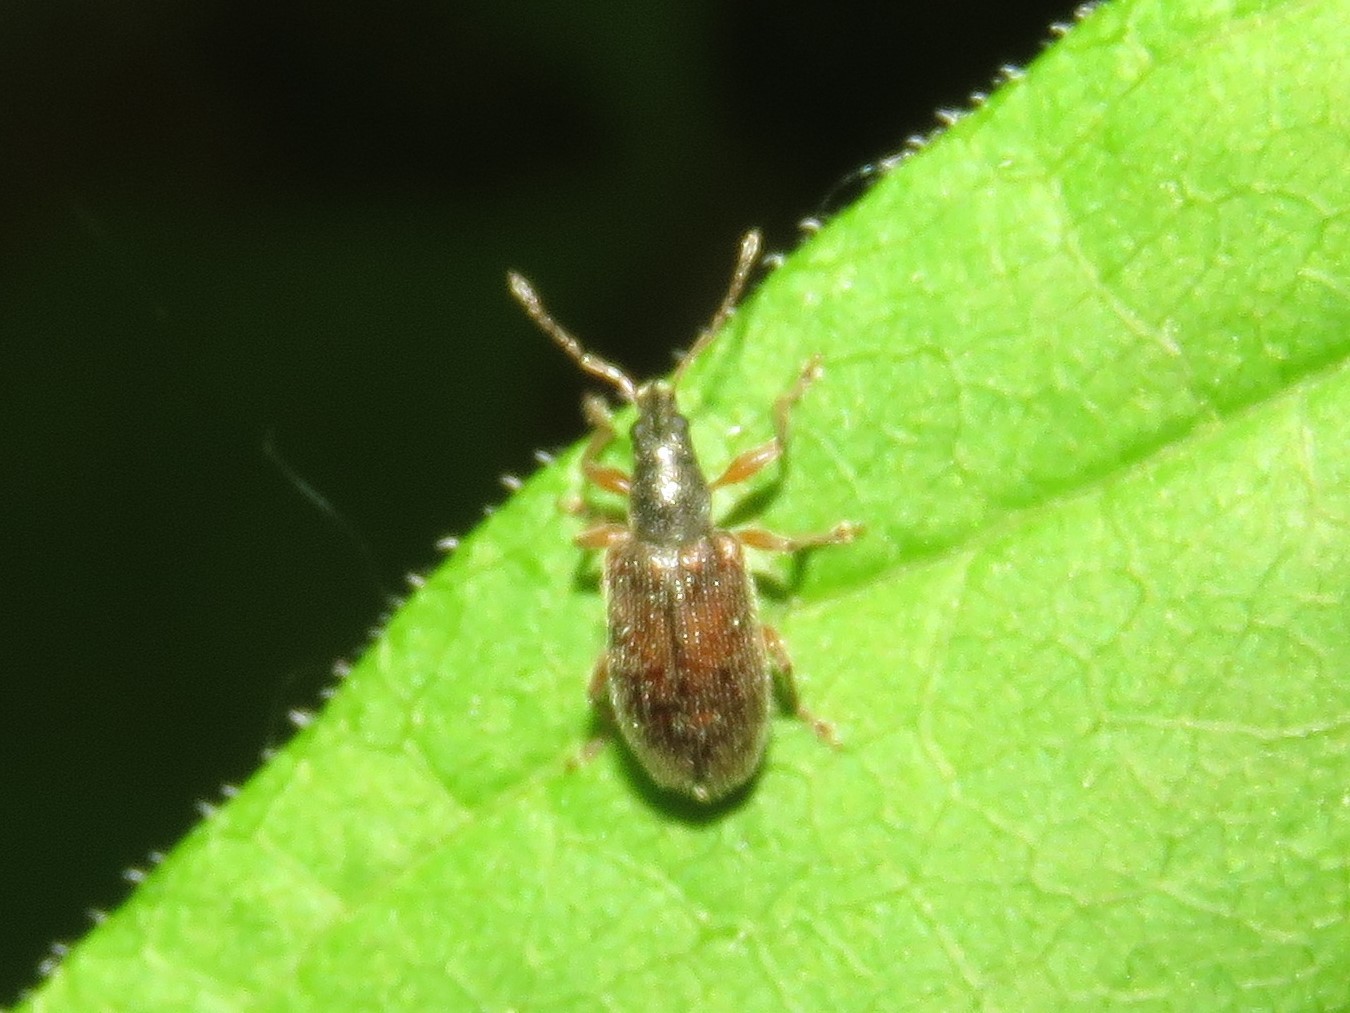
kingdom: Animalia
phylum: Arthropoda
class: Insecta
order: Coleoptera
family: Curculionidae
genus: Phyllobius
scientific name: Phyllobius oblongus
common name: Brown leaf weevil
